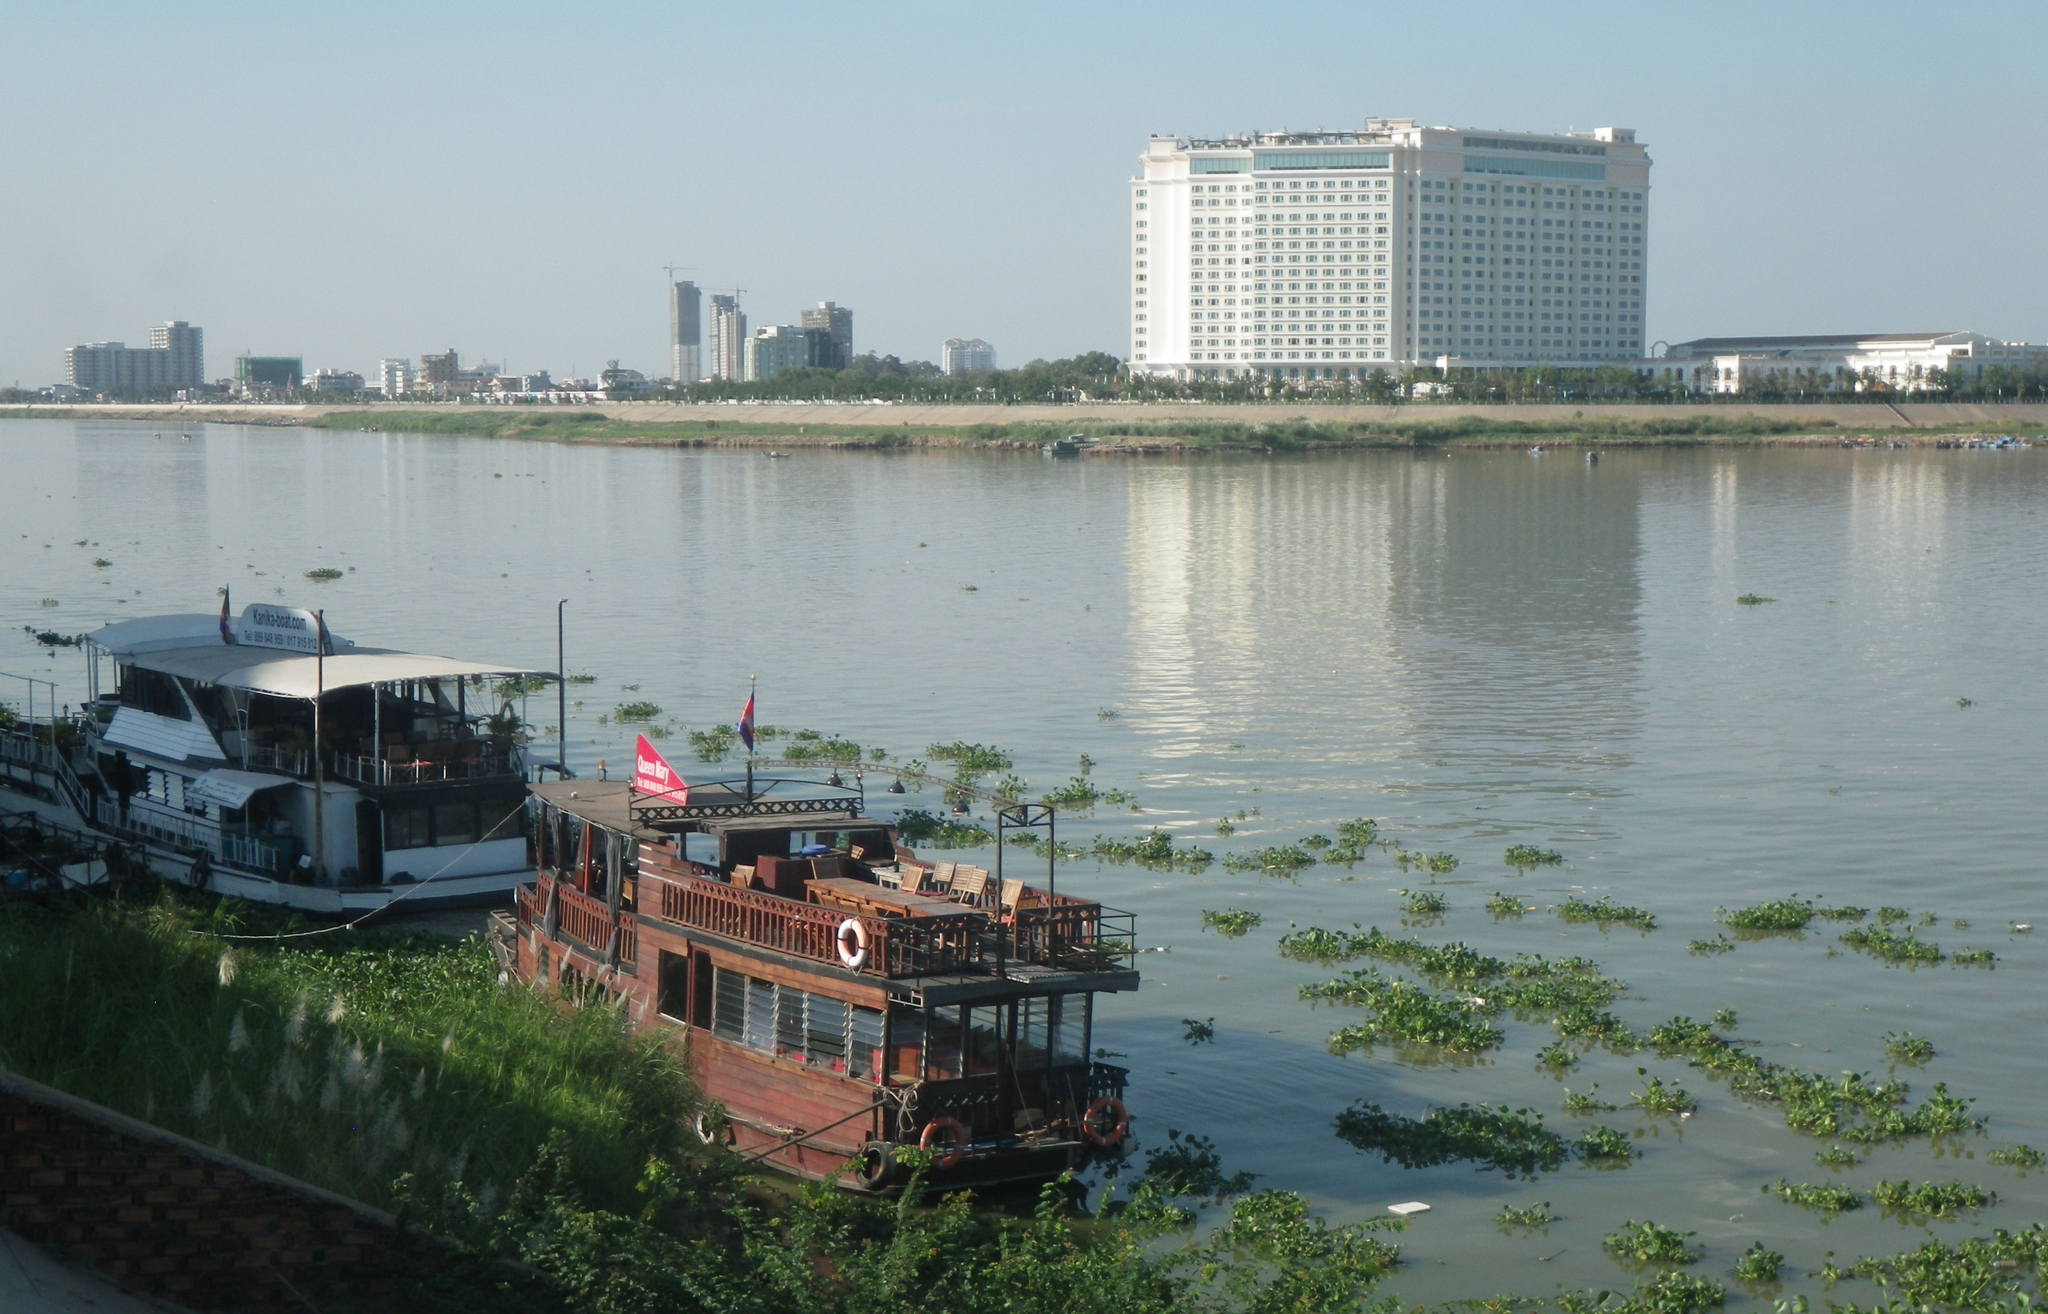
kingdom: Plantae
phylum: Tracheophyta
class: Liliopsida
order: Commelinales
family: Pontederiaceae
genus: Pontederia
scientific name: Pontederia crassipes
